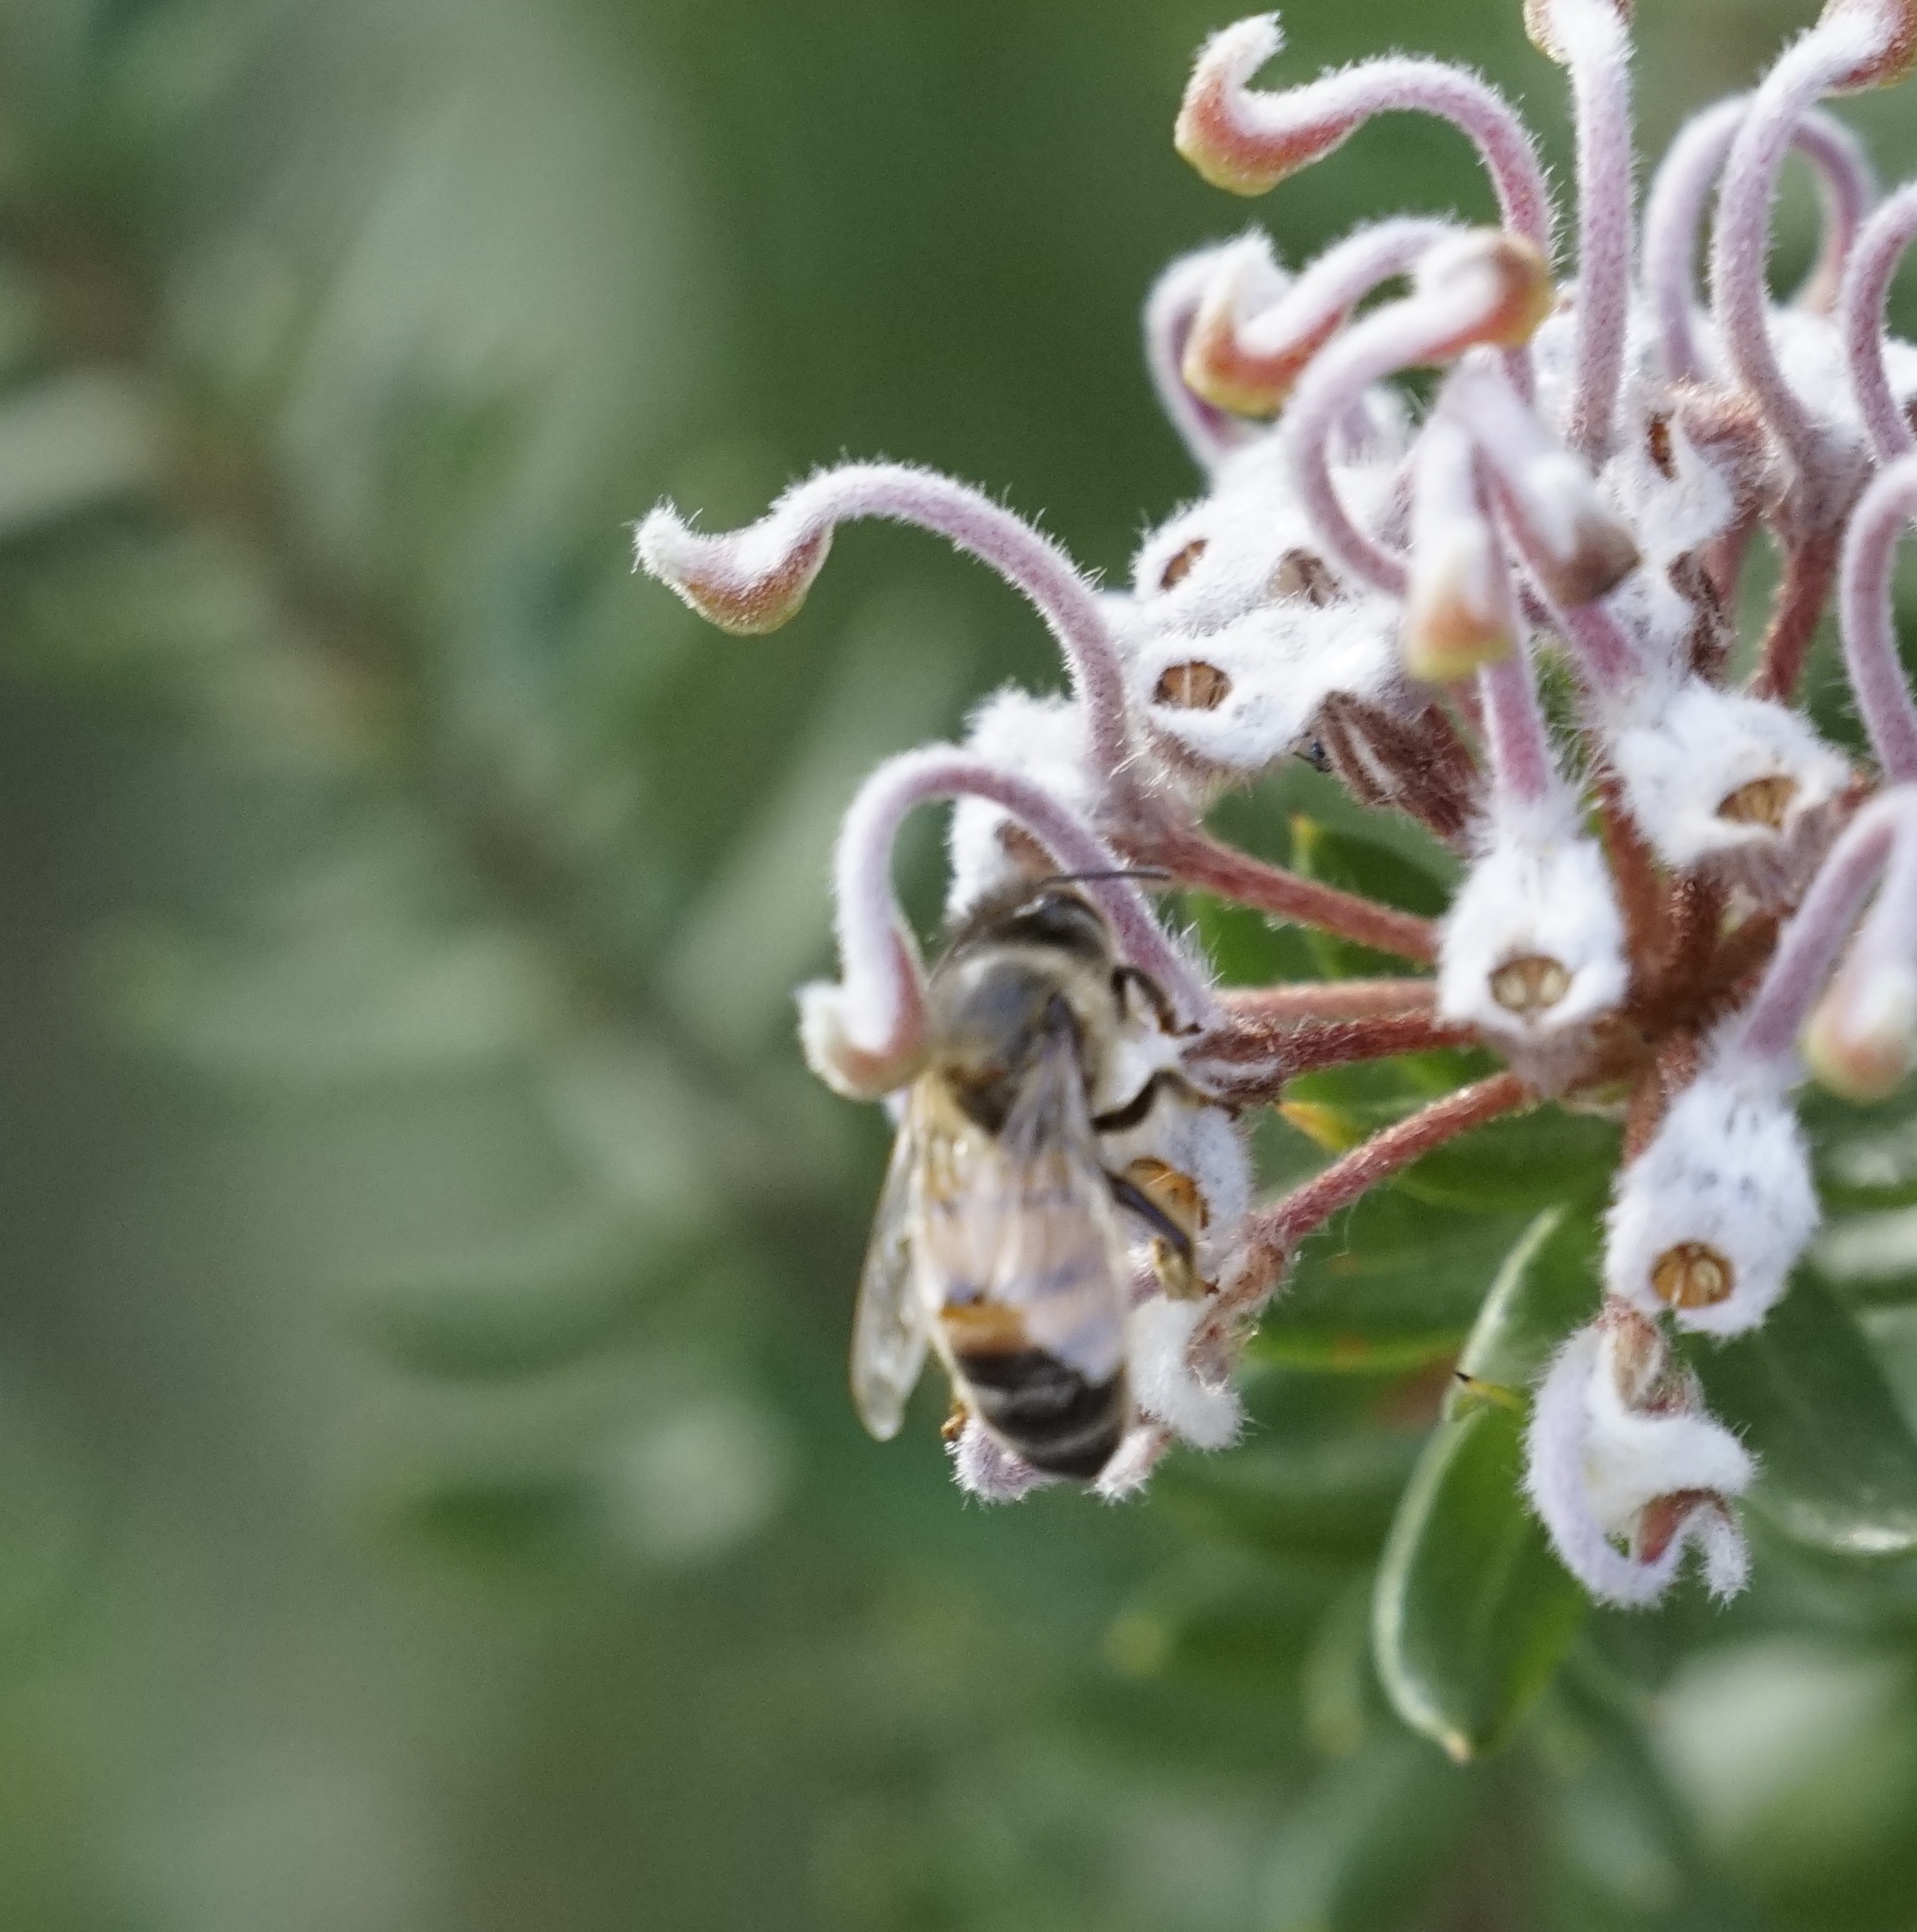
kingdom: Animalia
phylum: Arthropoda
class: Insecta
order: Hymenoptera
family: Apidae
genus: Apis
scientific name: Apis mellifera
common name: Honey bee
